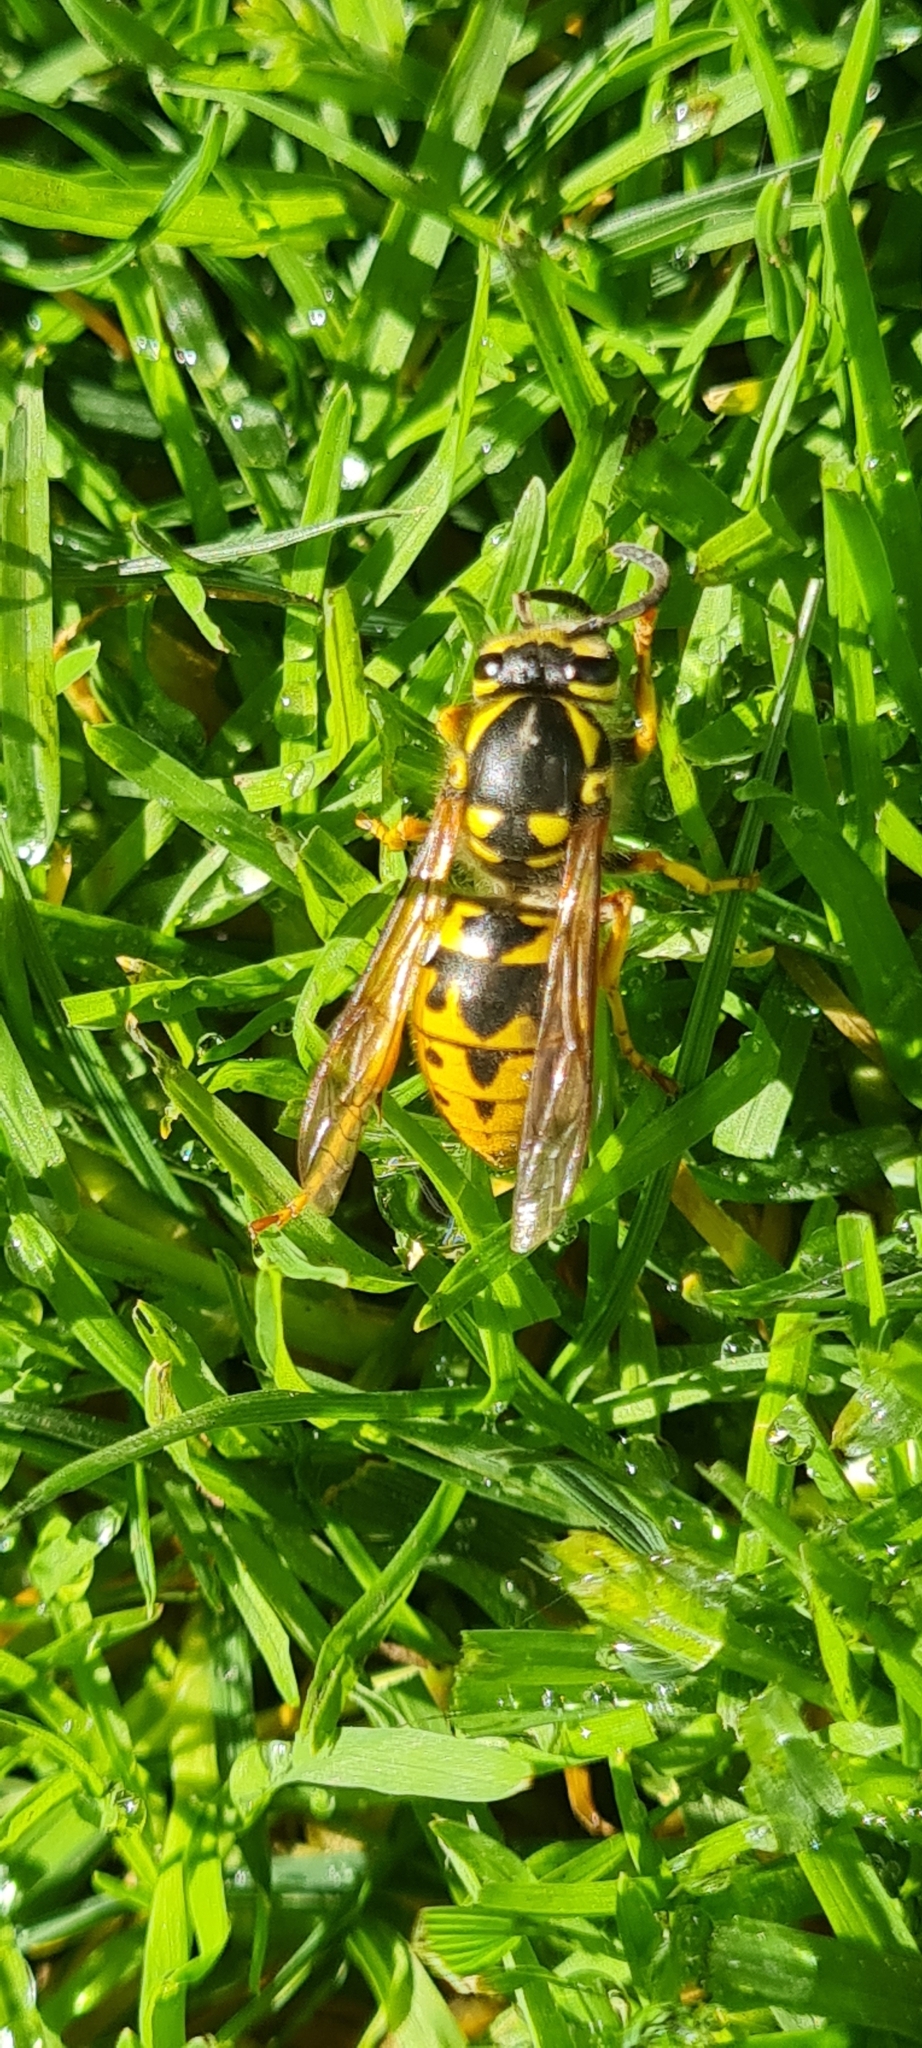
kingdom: Animalia
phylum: Arthropoda
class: Insecta
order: Hymenoptera
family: Vespidae
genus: Vespula
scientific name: Vespula germanica
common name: German wasp
